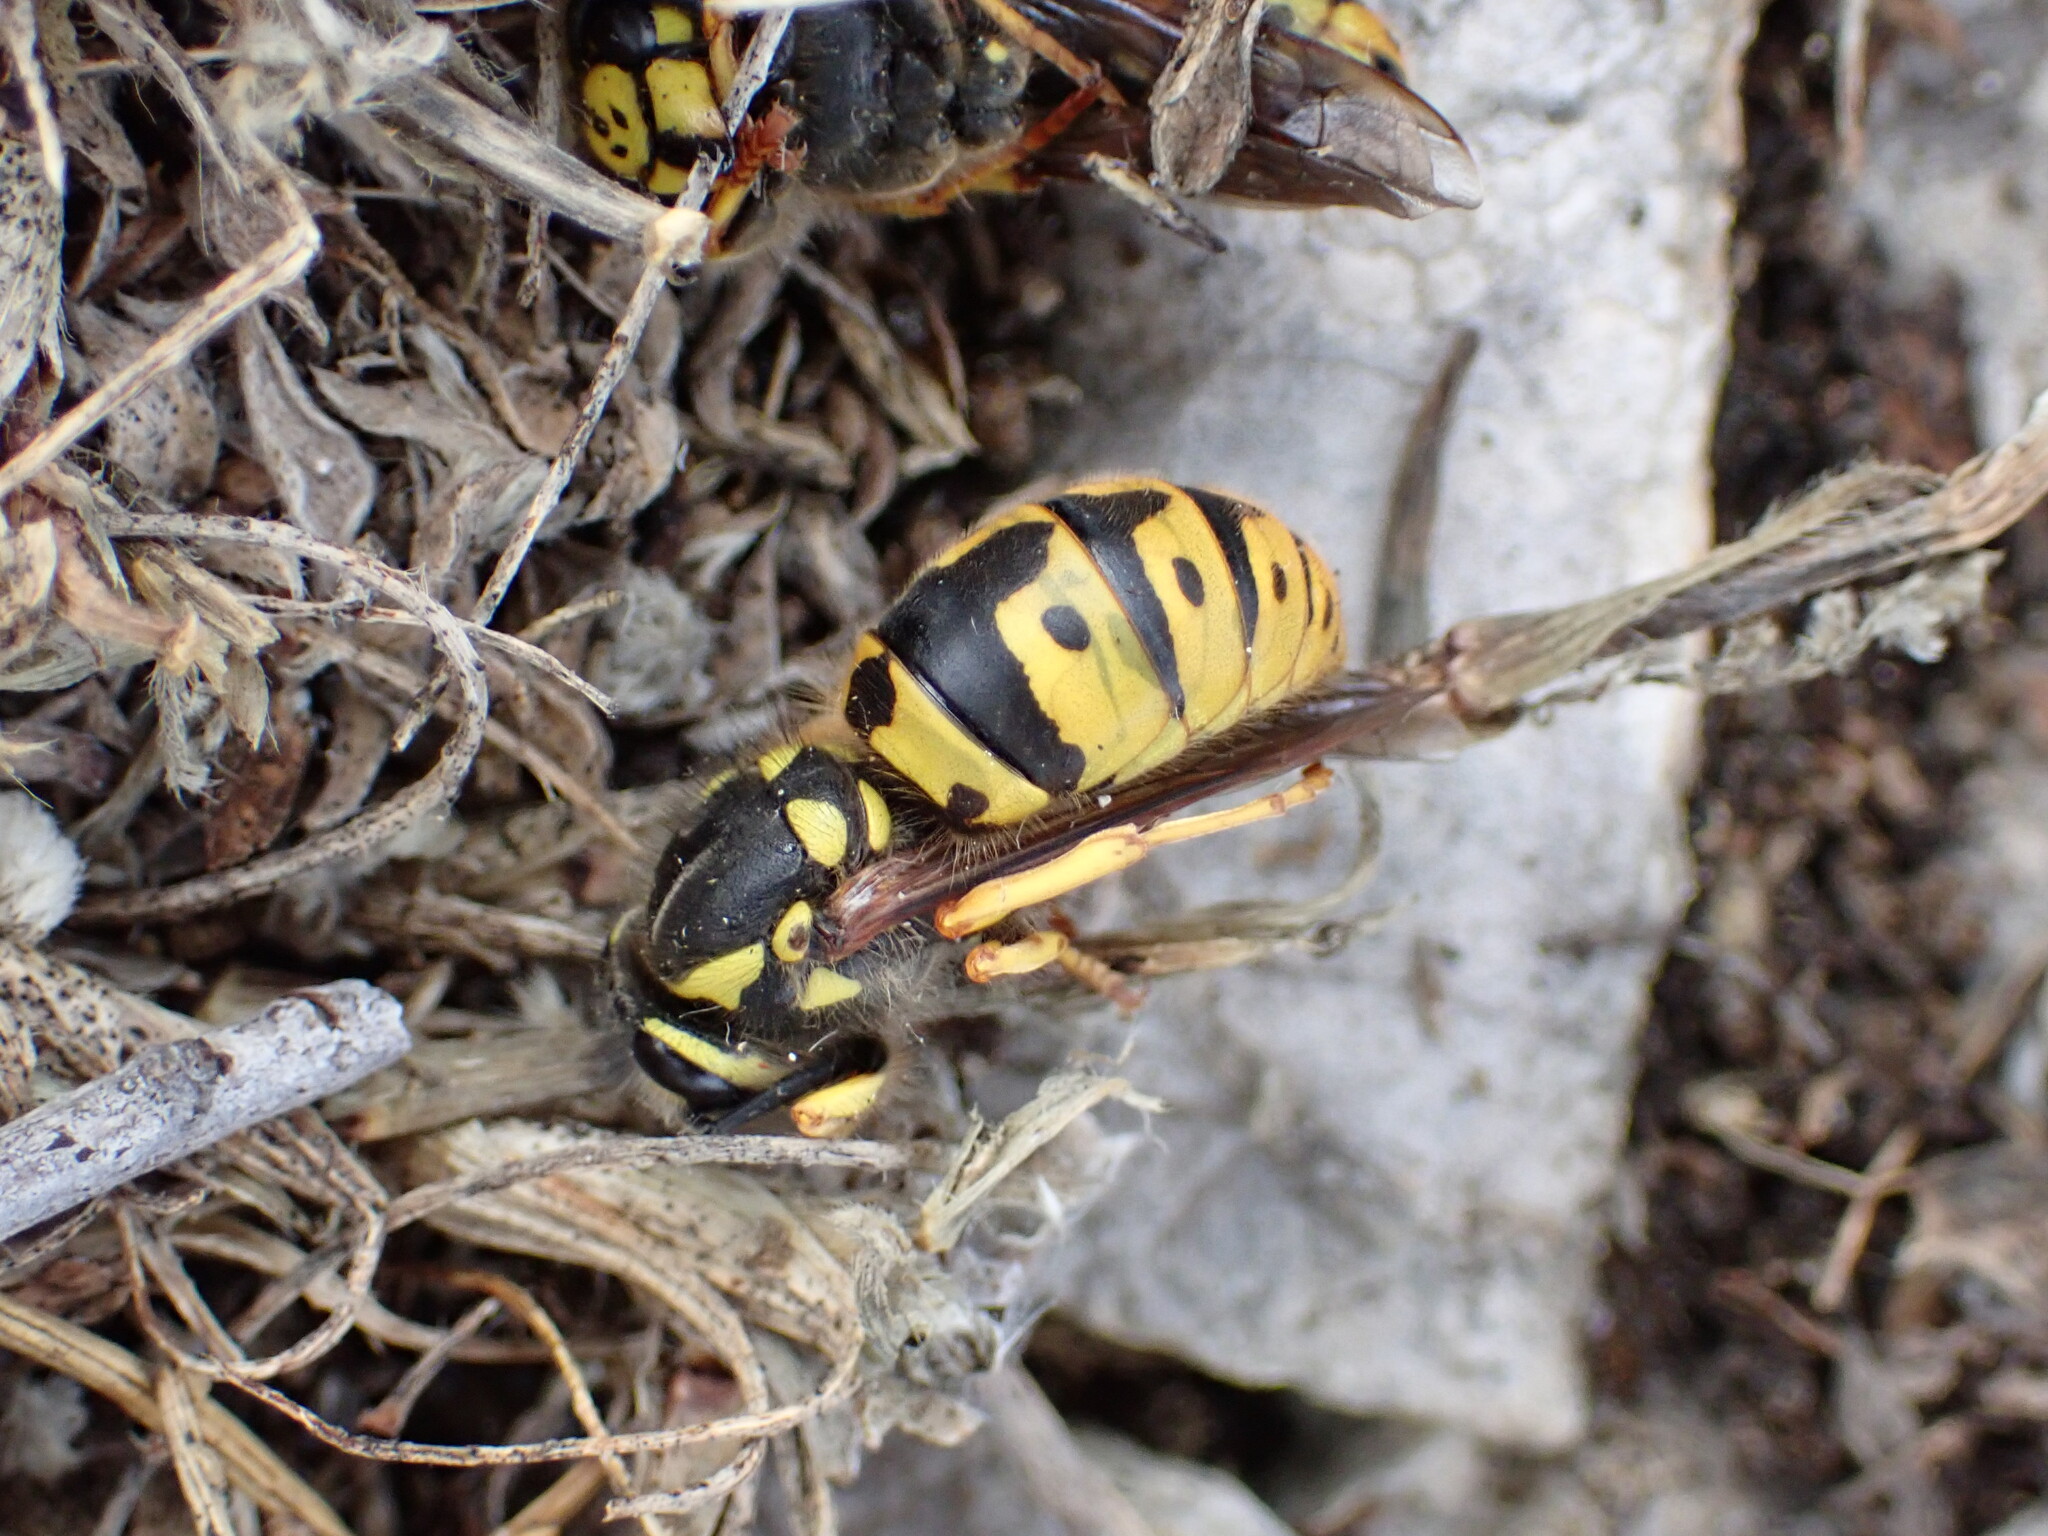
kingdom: Animalia
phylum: Arthropoda
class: Insecta
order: Hymenoptera
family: Vespidae
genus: Vespula
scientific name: Vespula germanica
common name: German wasp
